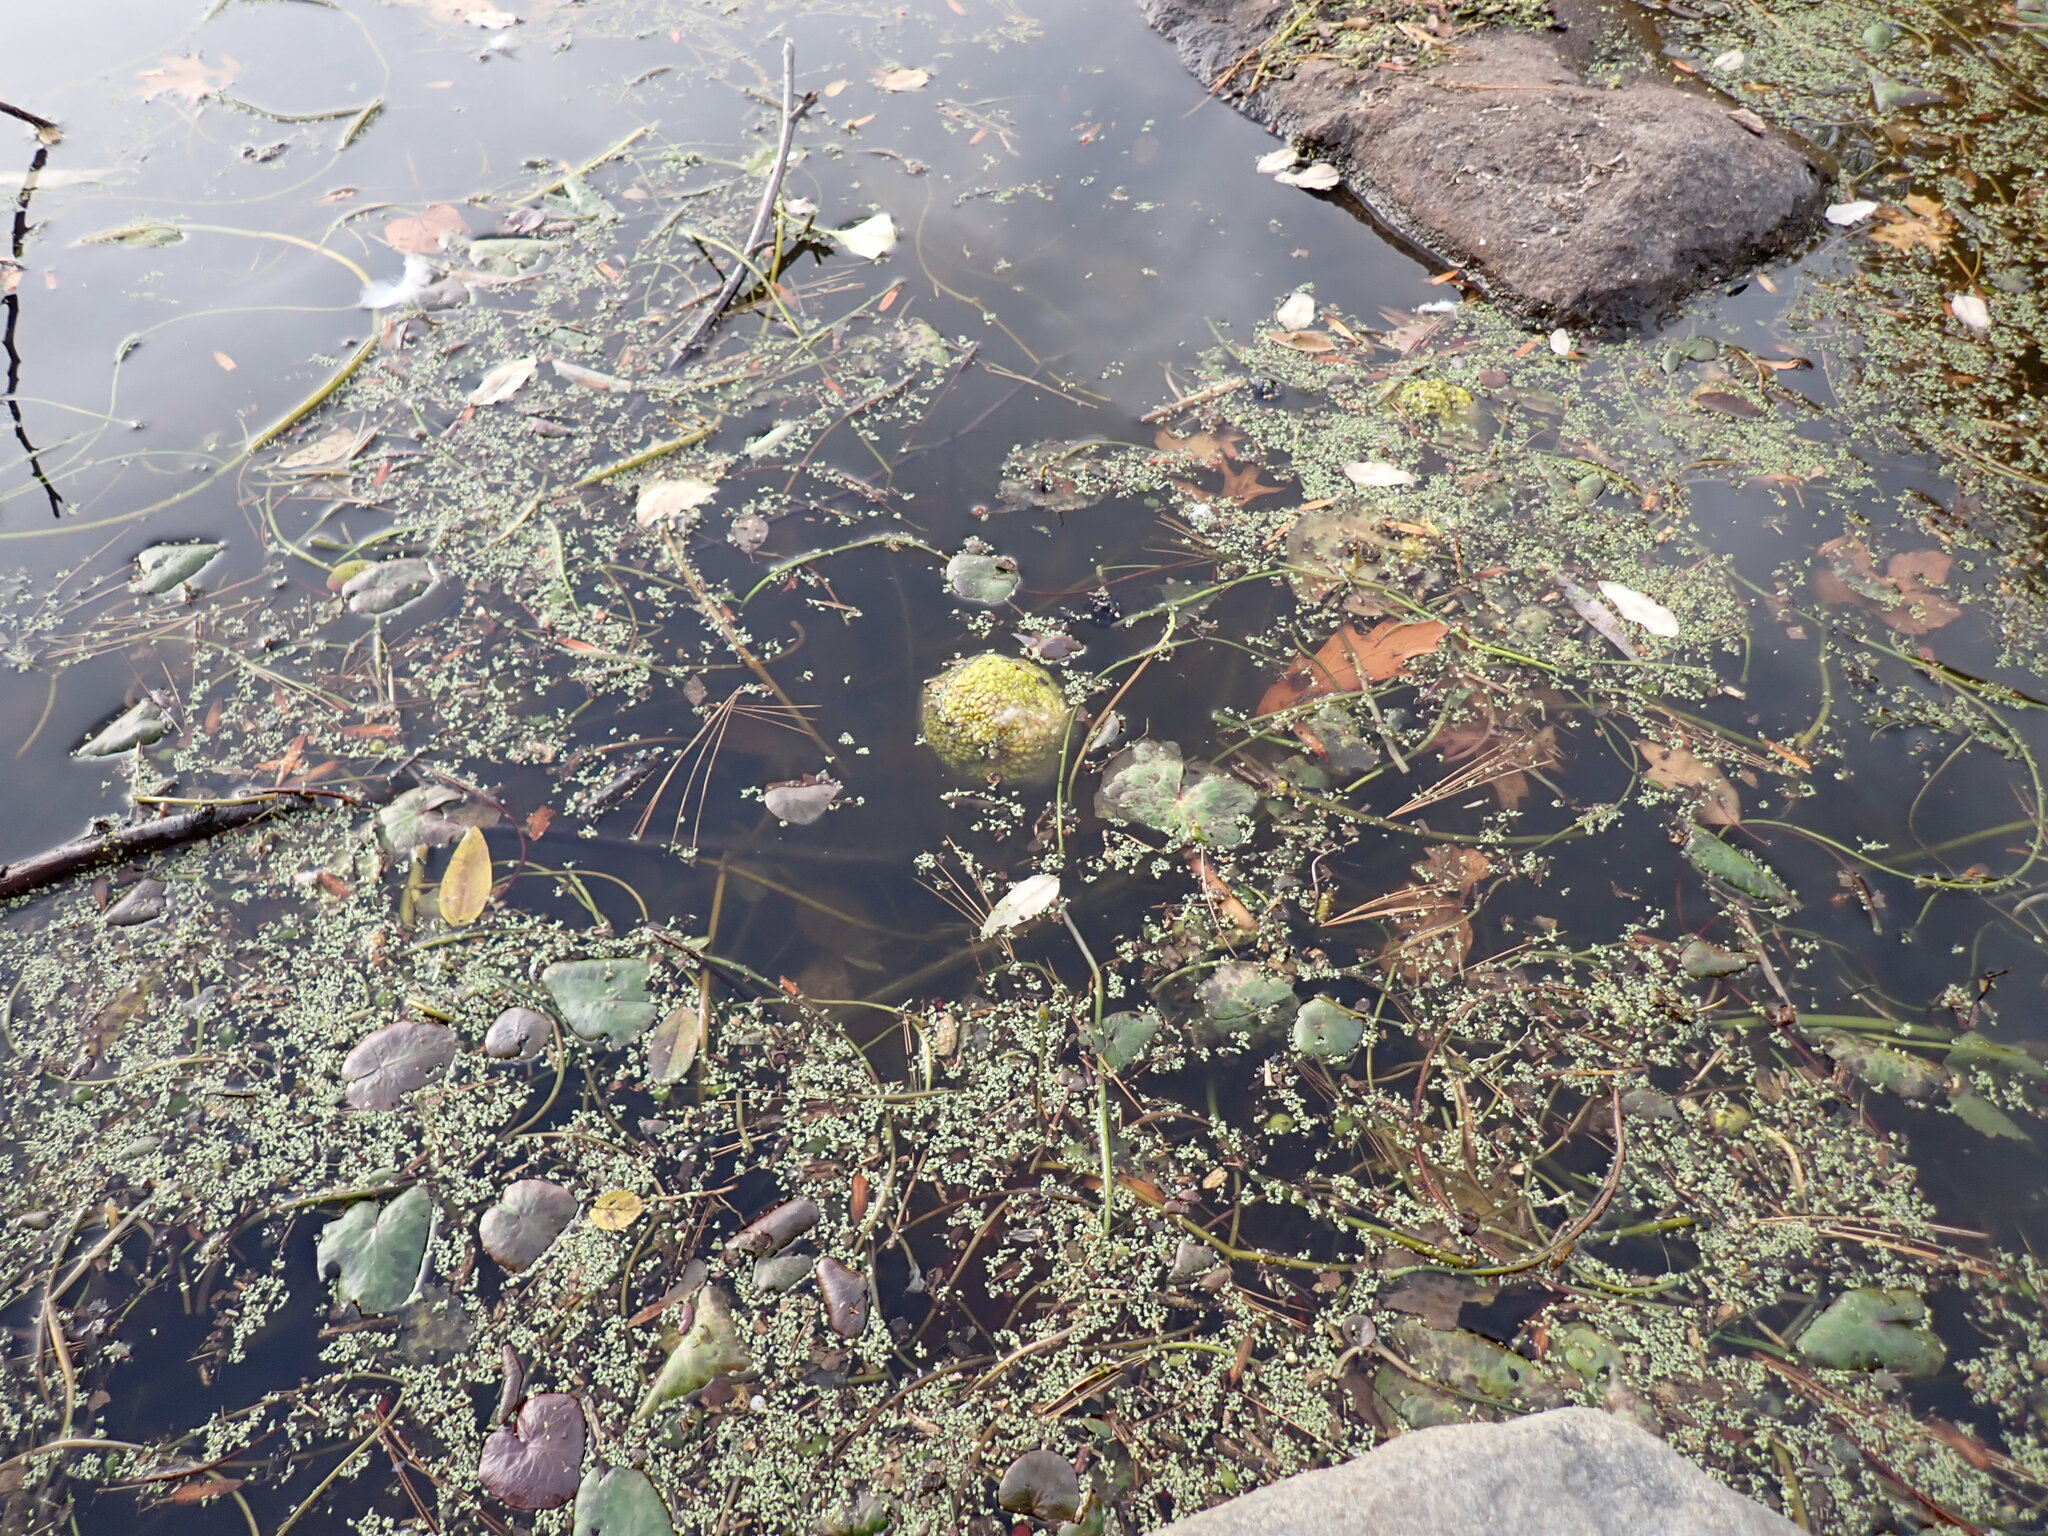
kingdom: Plantae
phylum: Tracheophyta
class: Magnoliopsida
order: Rosales
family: Moraceae
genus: Maclura
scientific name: Maclura pomifera
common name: Osage-orange
